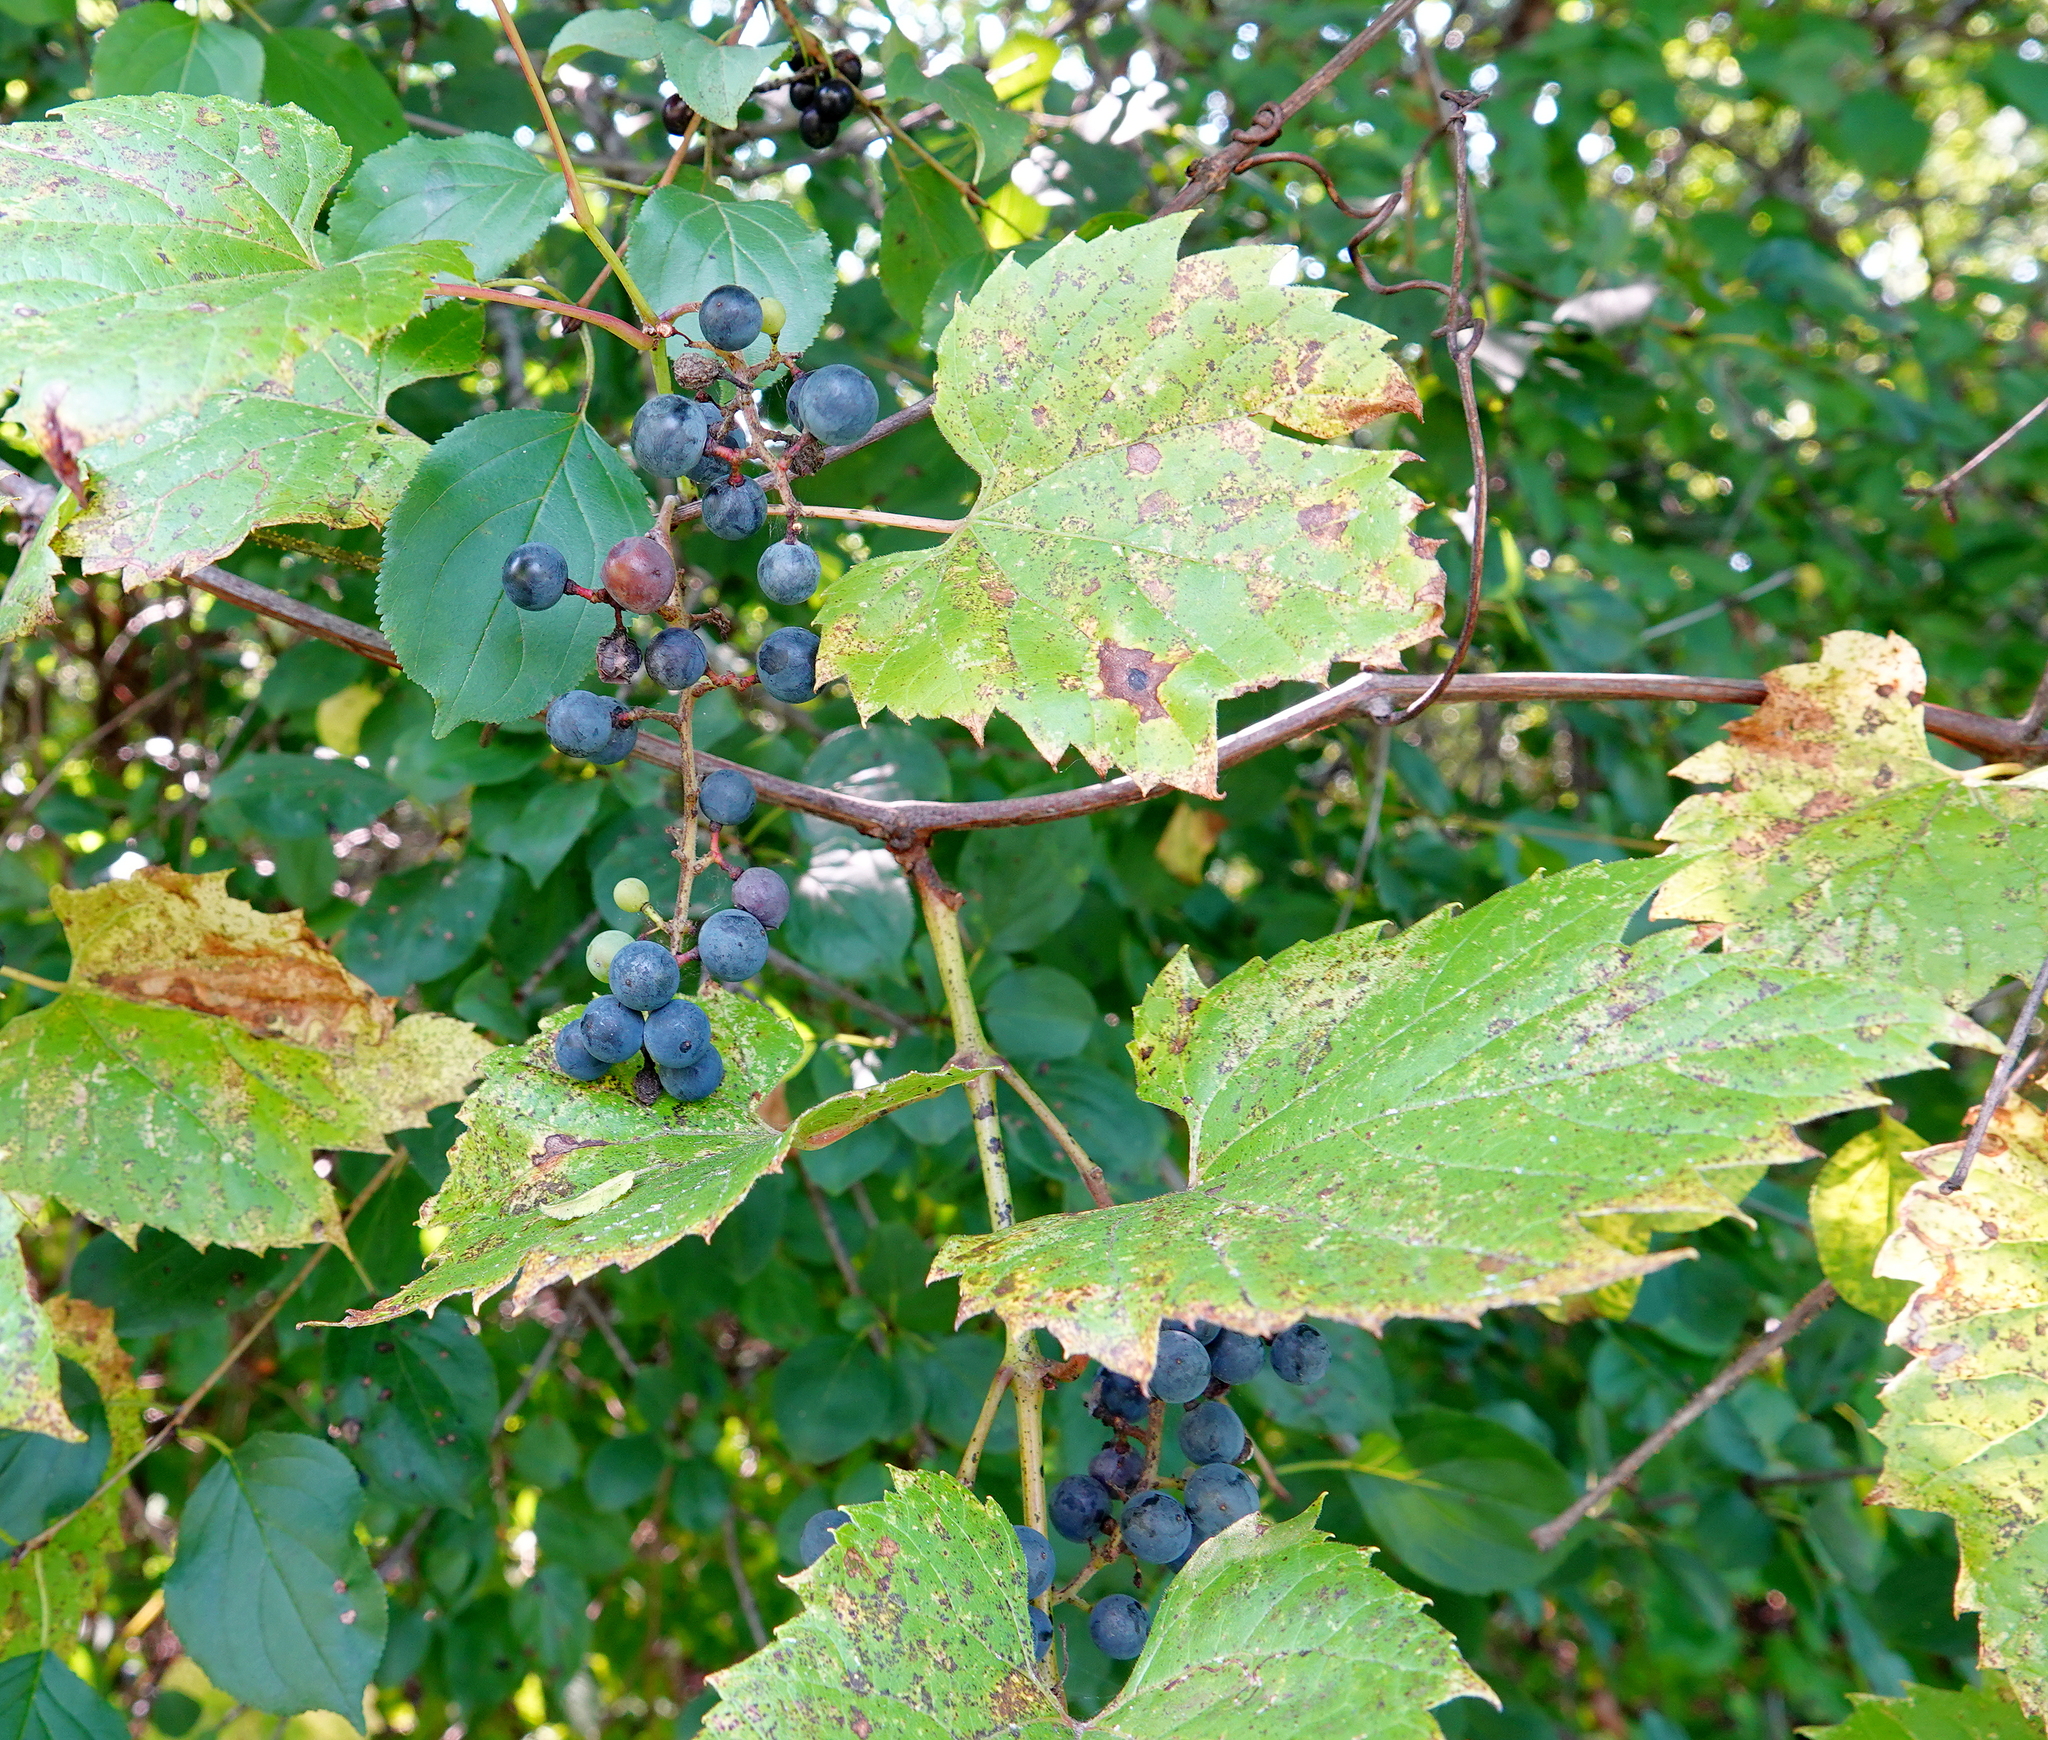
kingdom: Plantae
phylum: Tracheophyta
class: Magnoliopsida
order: Vitales
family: Vitaceae
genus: Vitis
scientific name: Vitis riparia
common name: Frost grape
